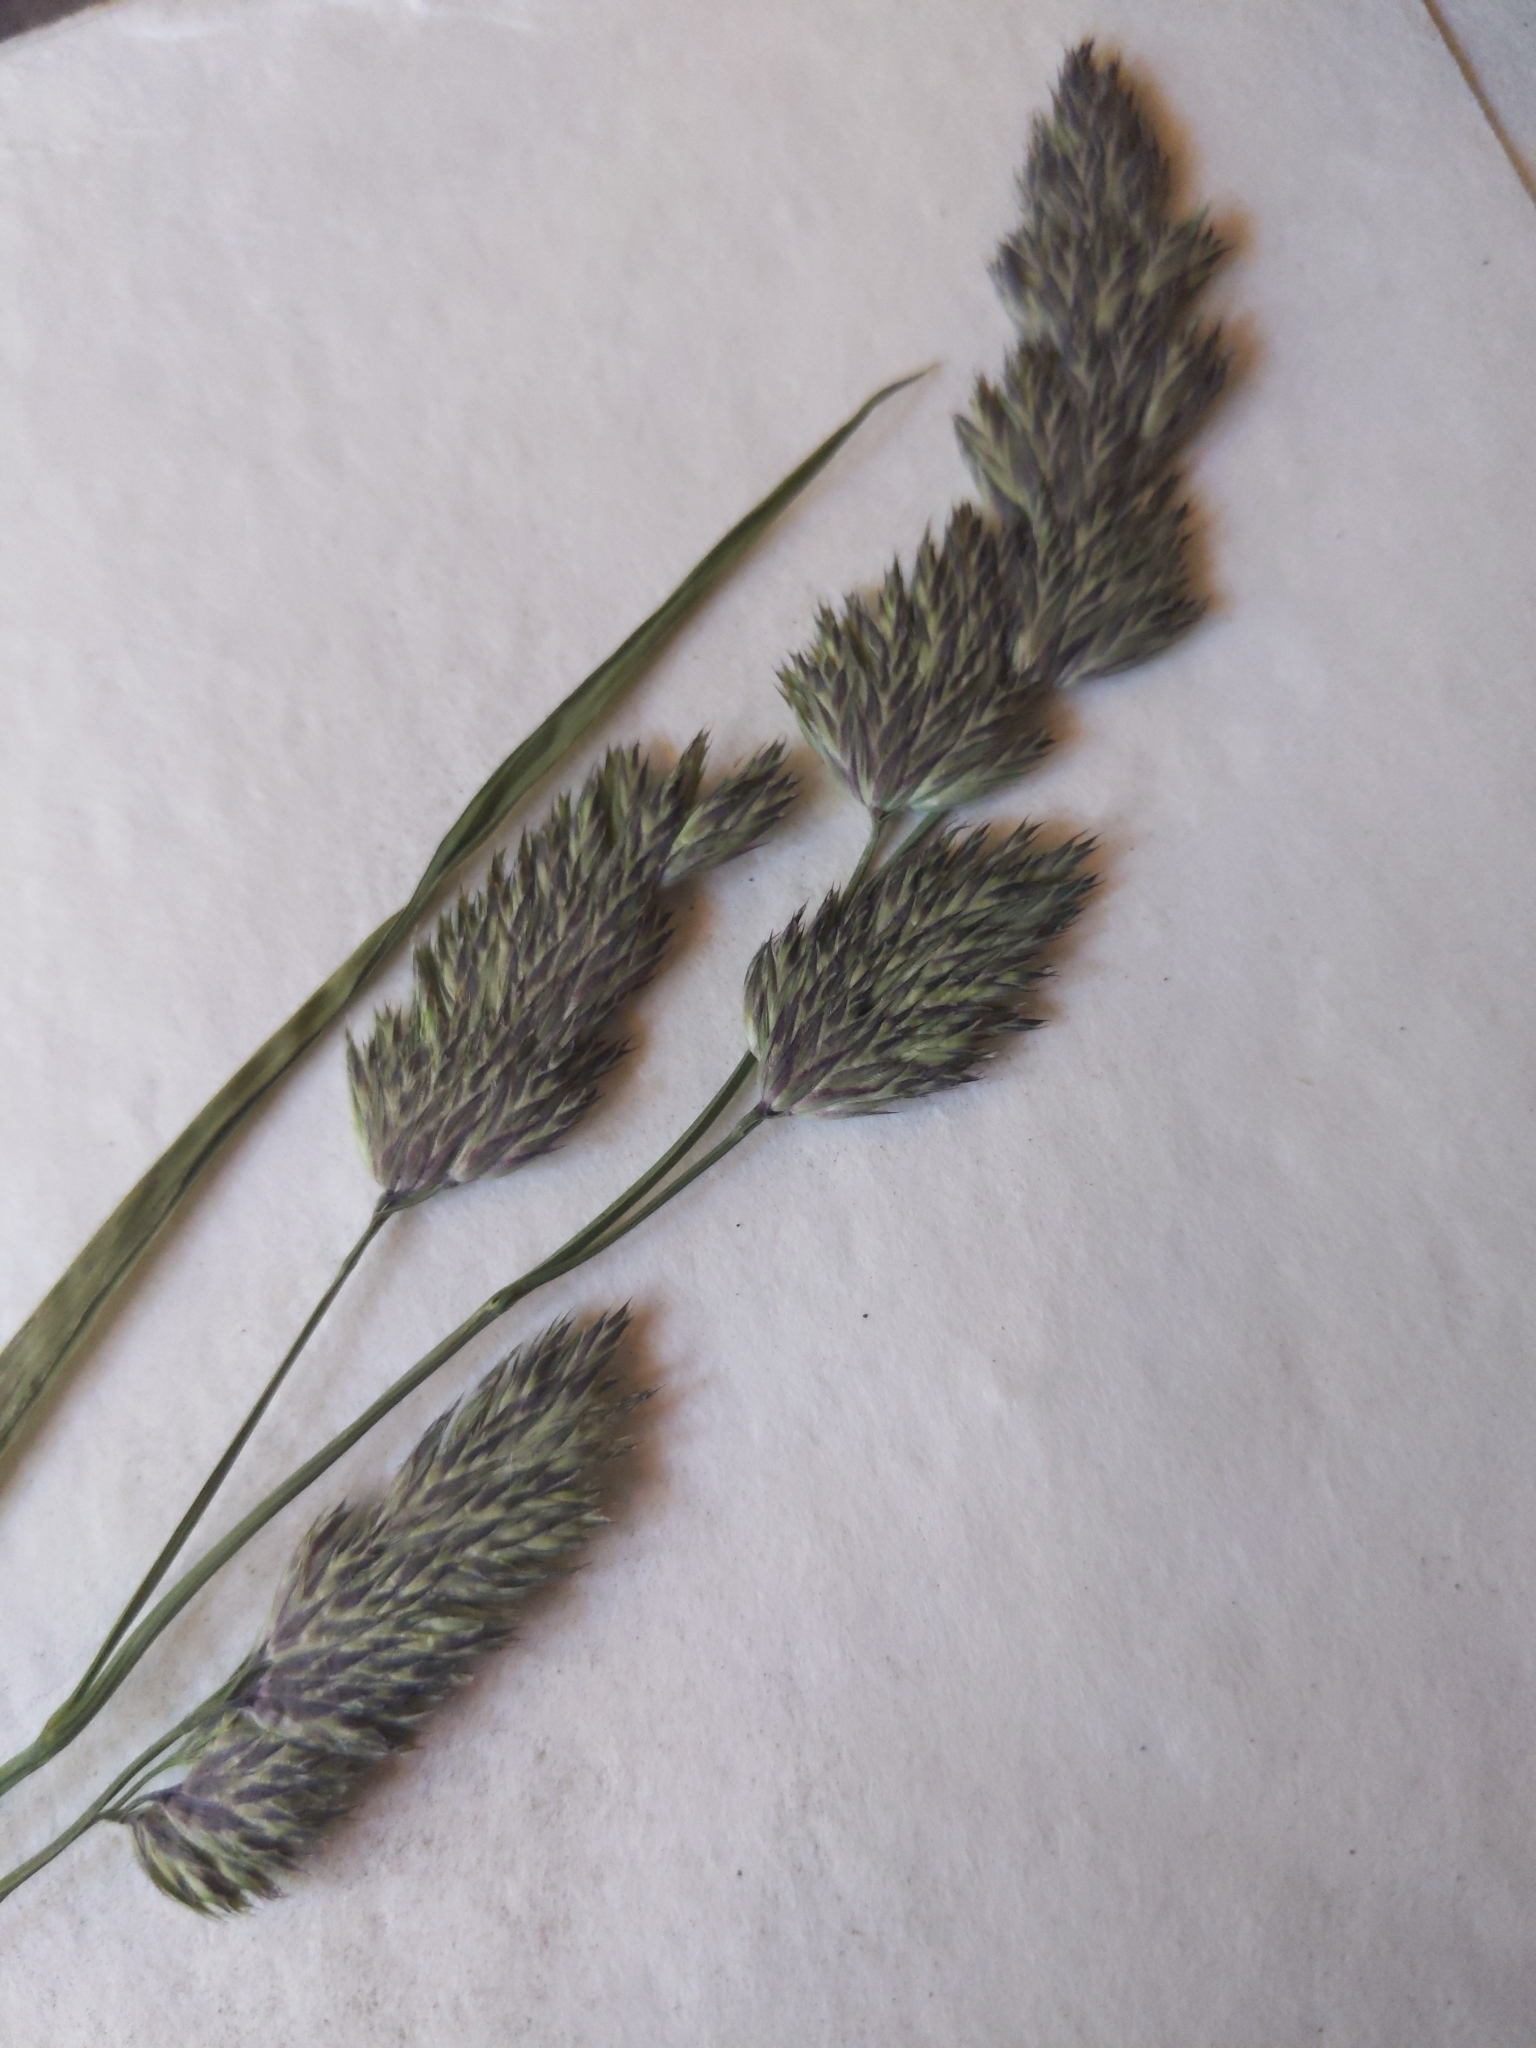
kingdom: Plantae
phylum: Tracheophyta
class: Liliopsida
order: Poales
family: Poaceae
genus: Dactylis
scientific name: Dactylis glomerata
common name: Orchardgrass
